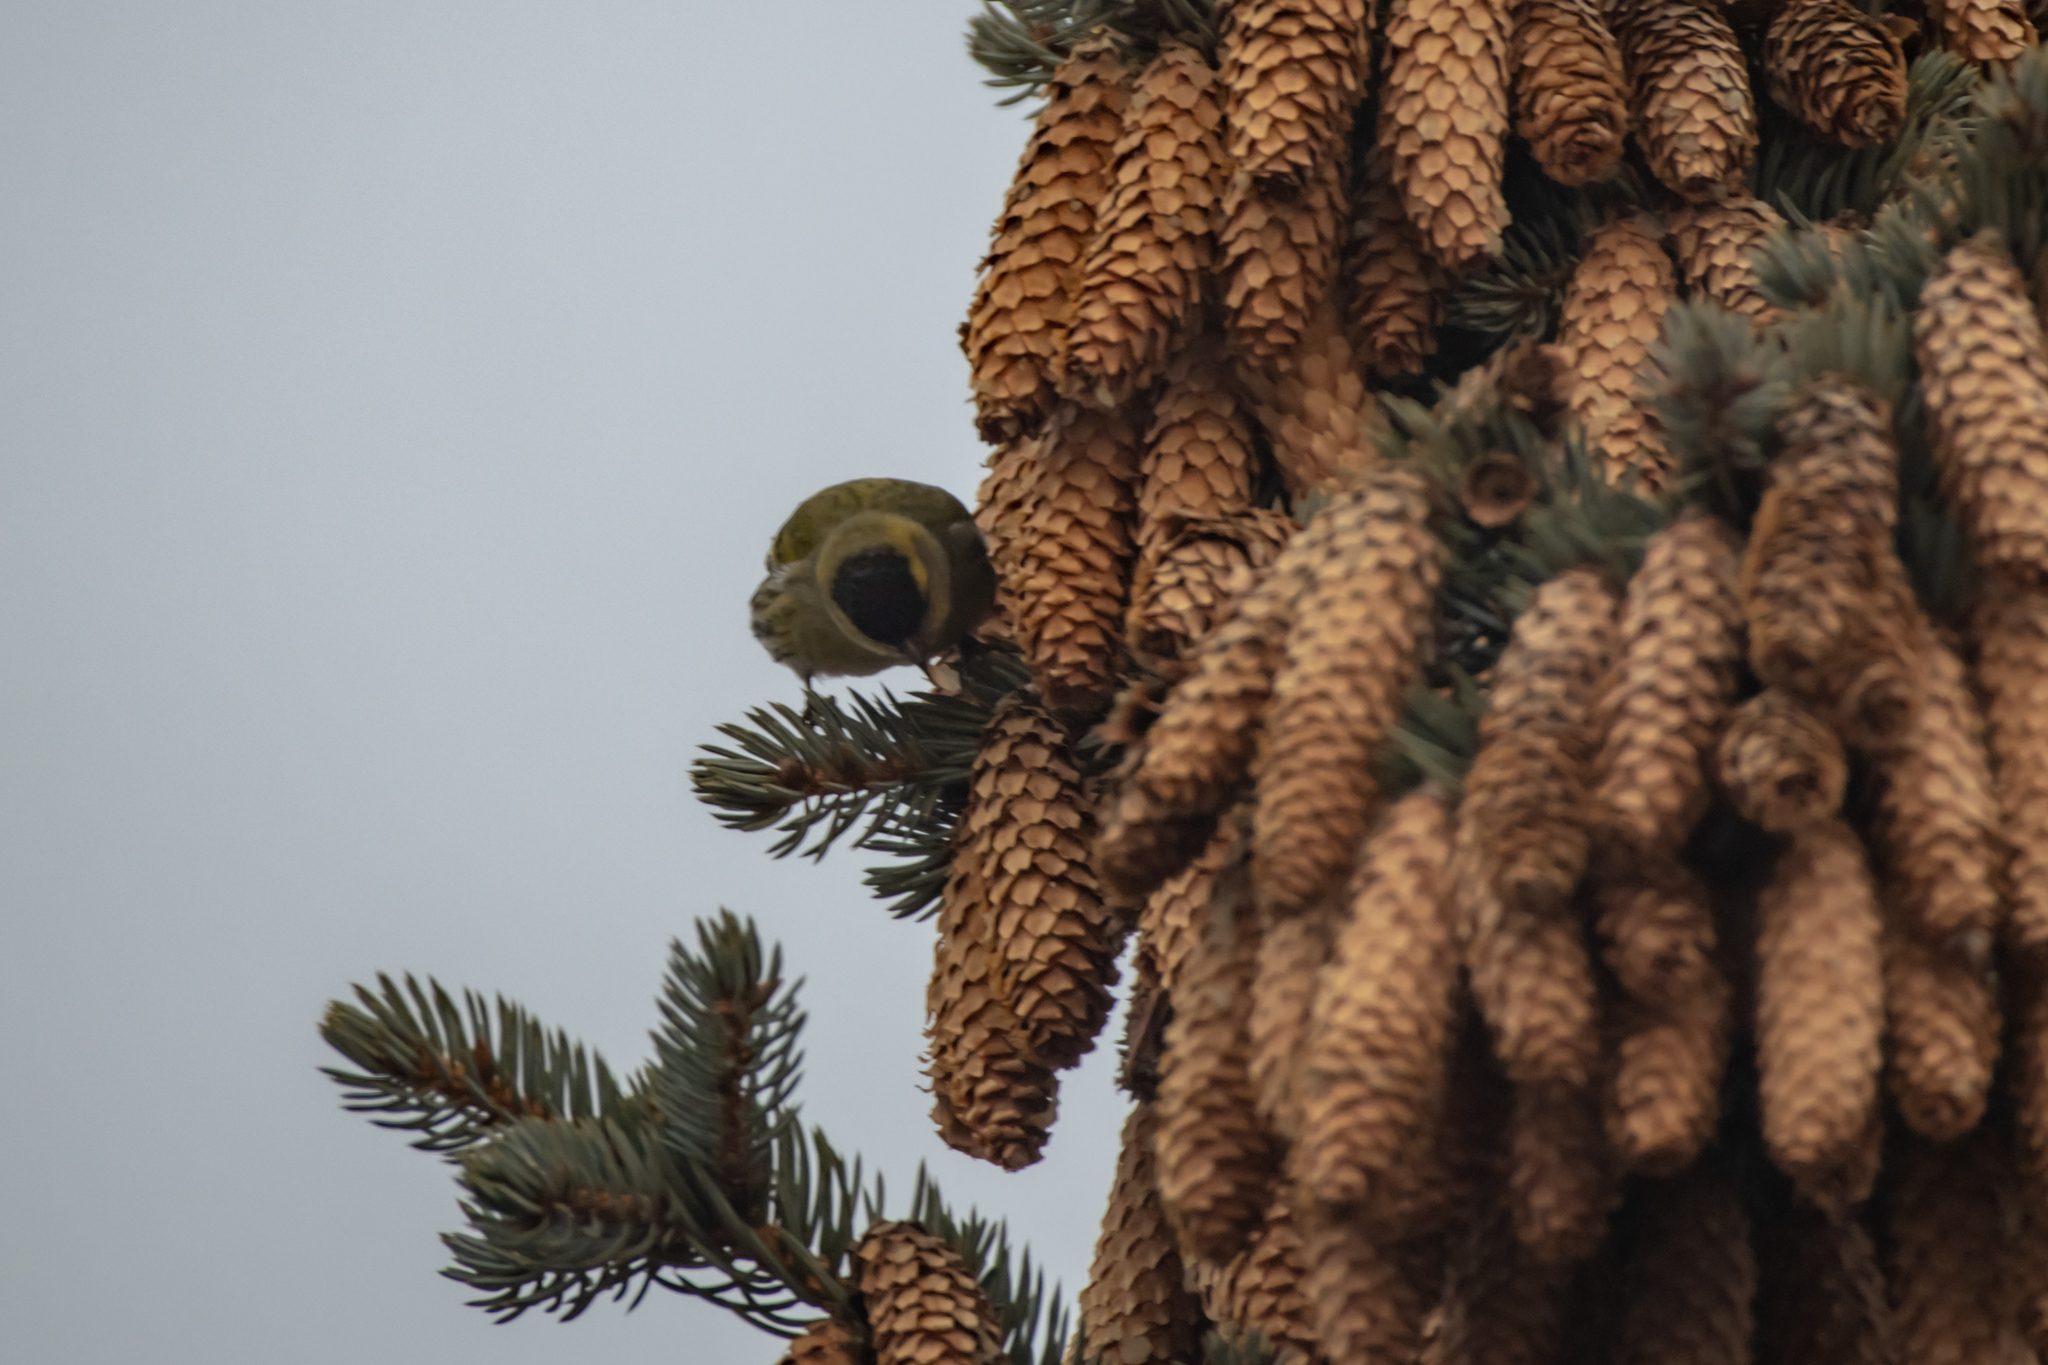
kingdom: Animalia
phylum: Chordata
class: Aves
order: Passeriformes
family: Fringillidae
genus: Spinus
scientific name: Spinus spinus
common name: Eurasian siskin
